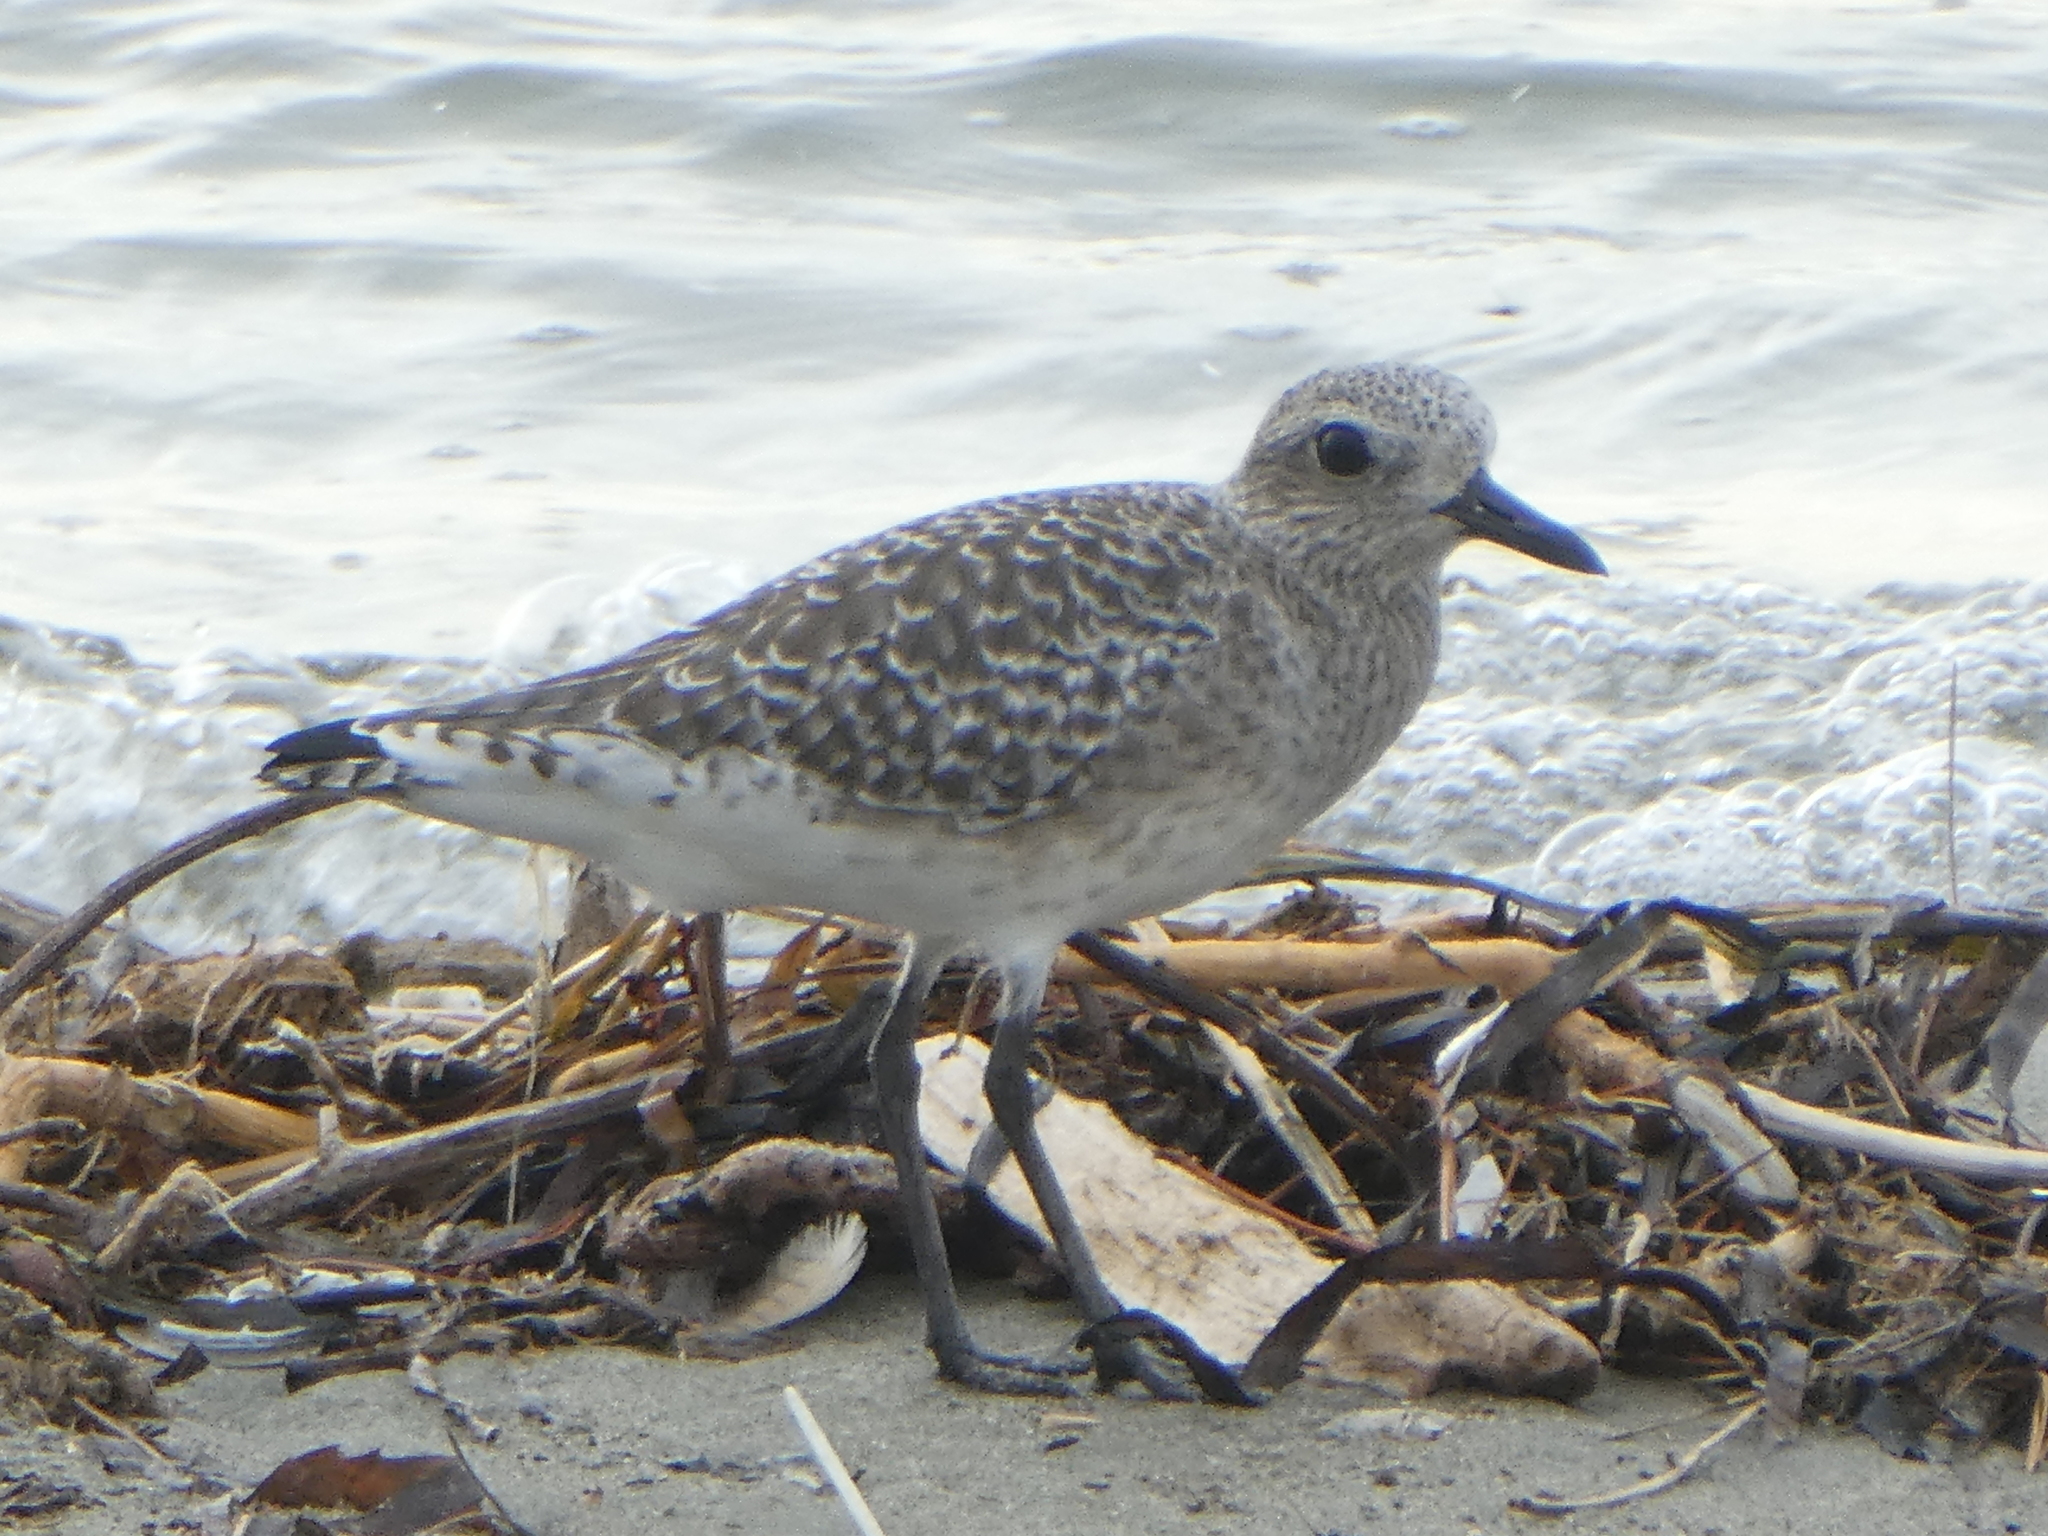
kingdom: Animalia
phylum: Chordata
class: Aves
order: Charadriiformes
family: Charadriidae
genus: Pluvialis
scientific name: Pluvialis squatarola
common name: Grey plover
